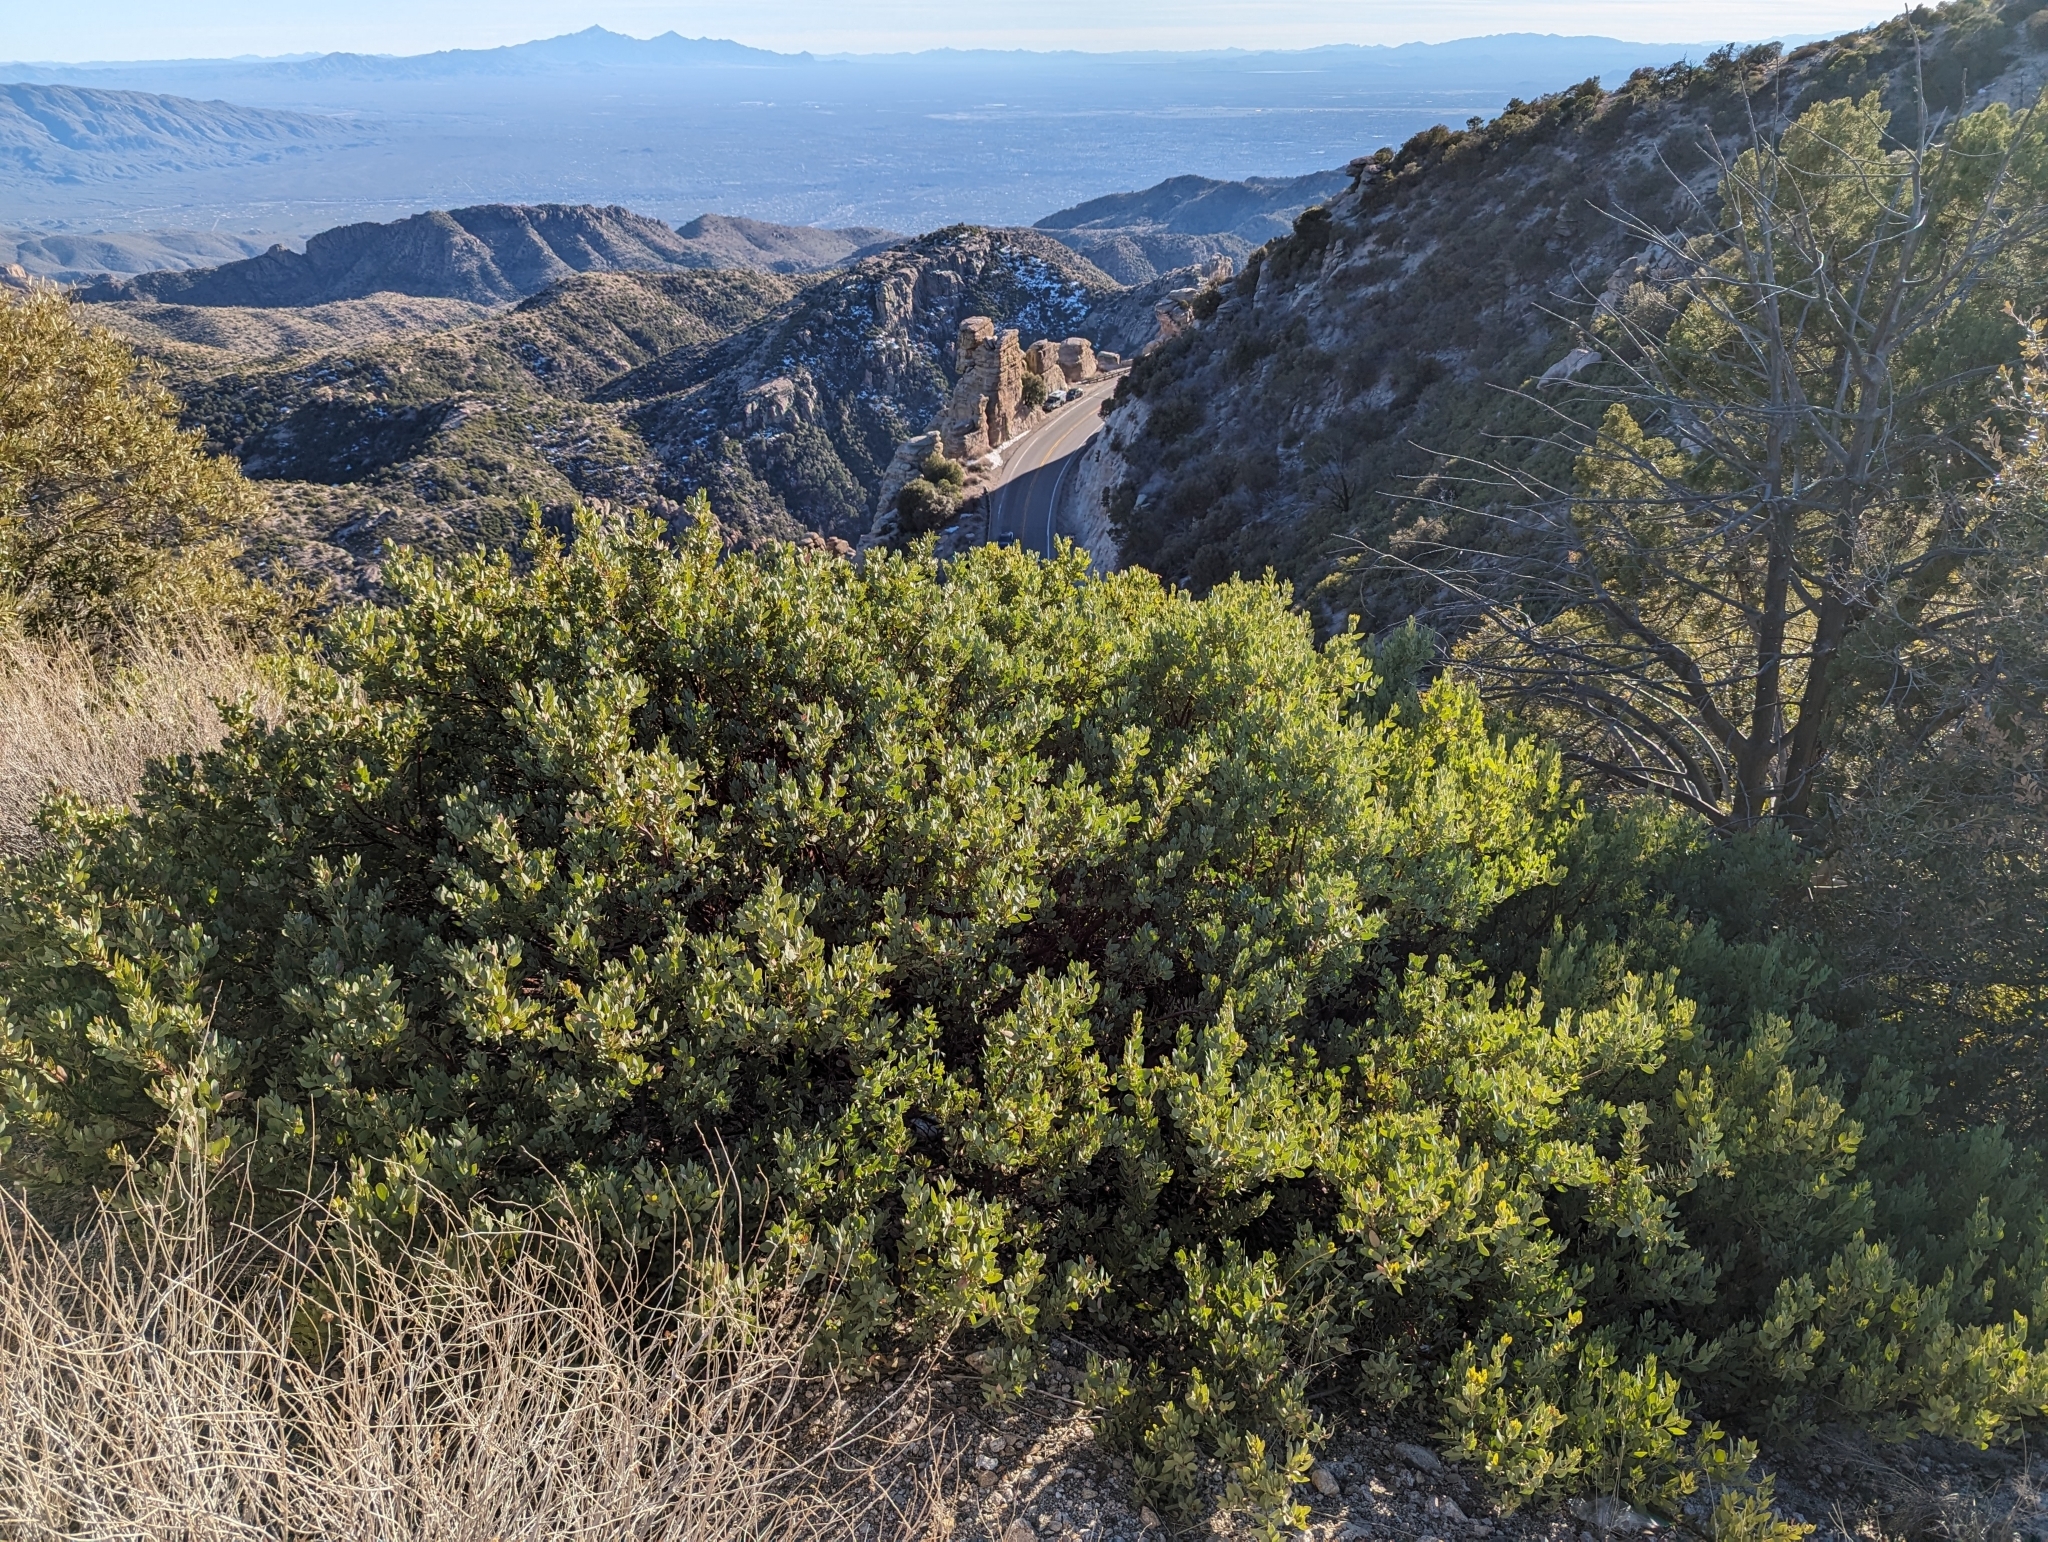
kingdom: Plantae
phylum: Tracheophyta
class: Magnoliopsida
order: Ericales
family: Ericaceae
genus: Arctostaphylos
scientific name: Arctostaphylos pringlei
